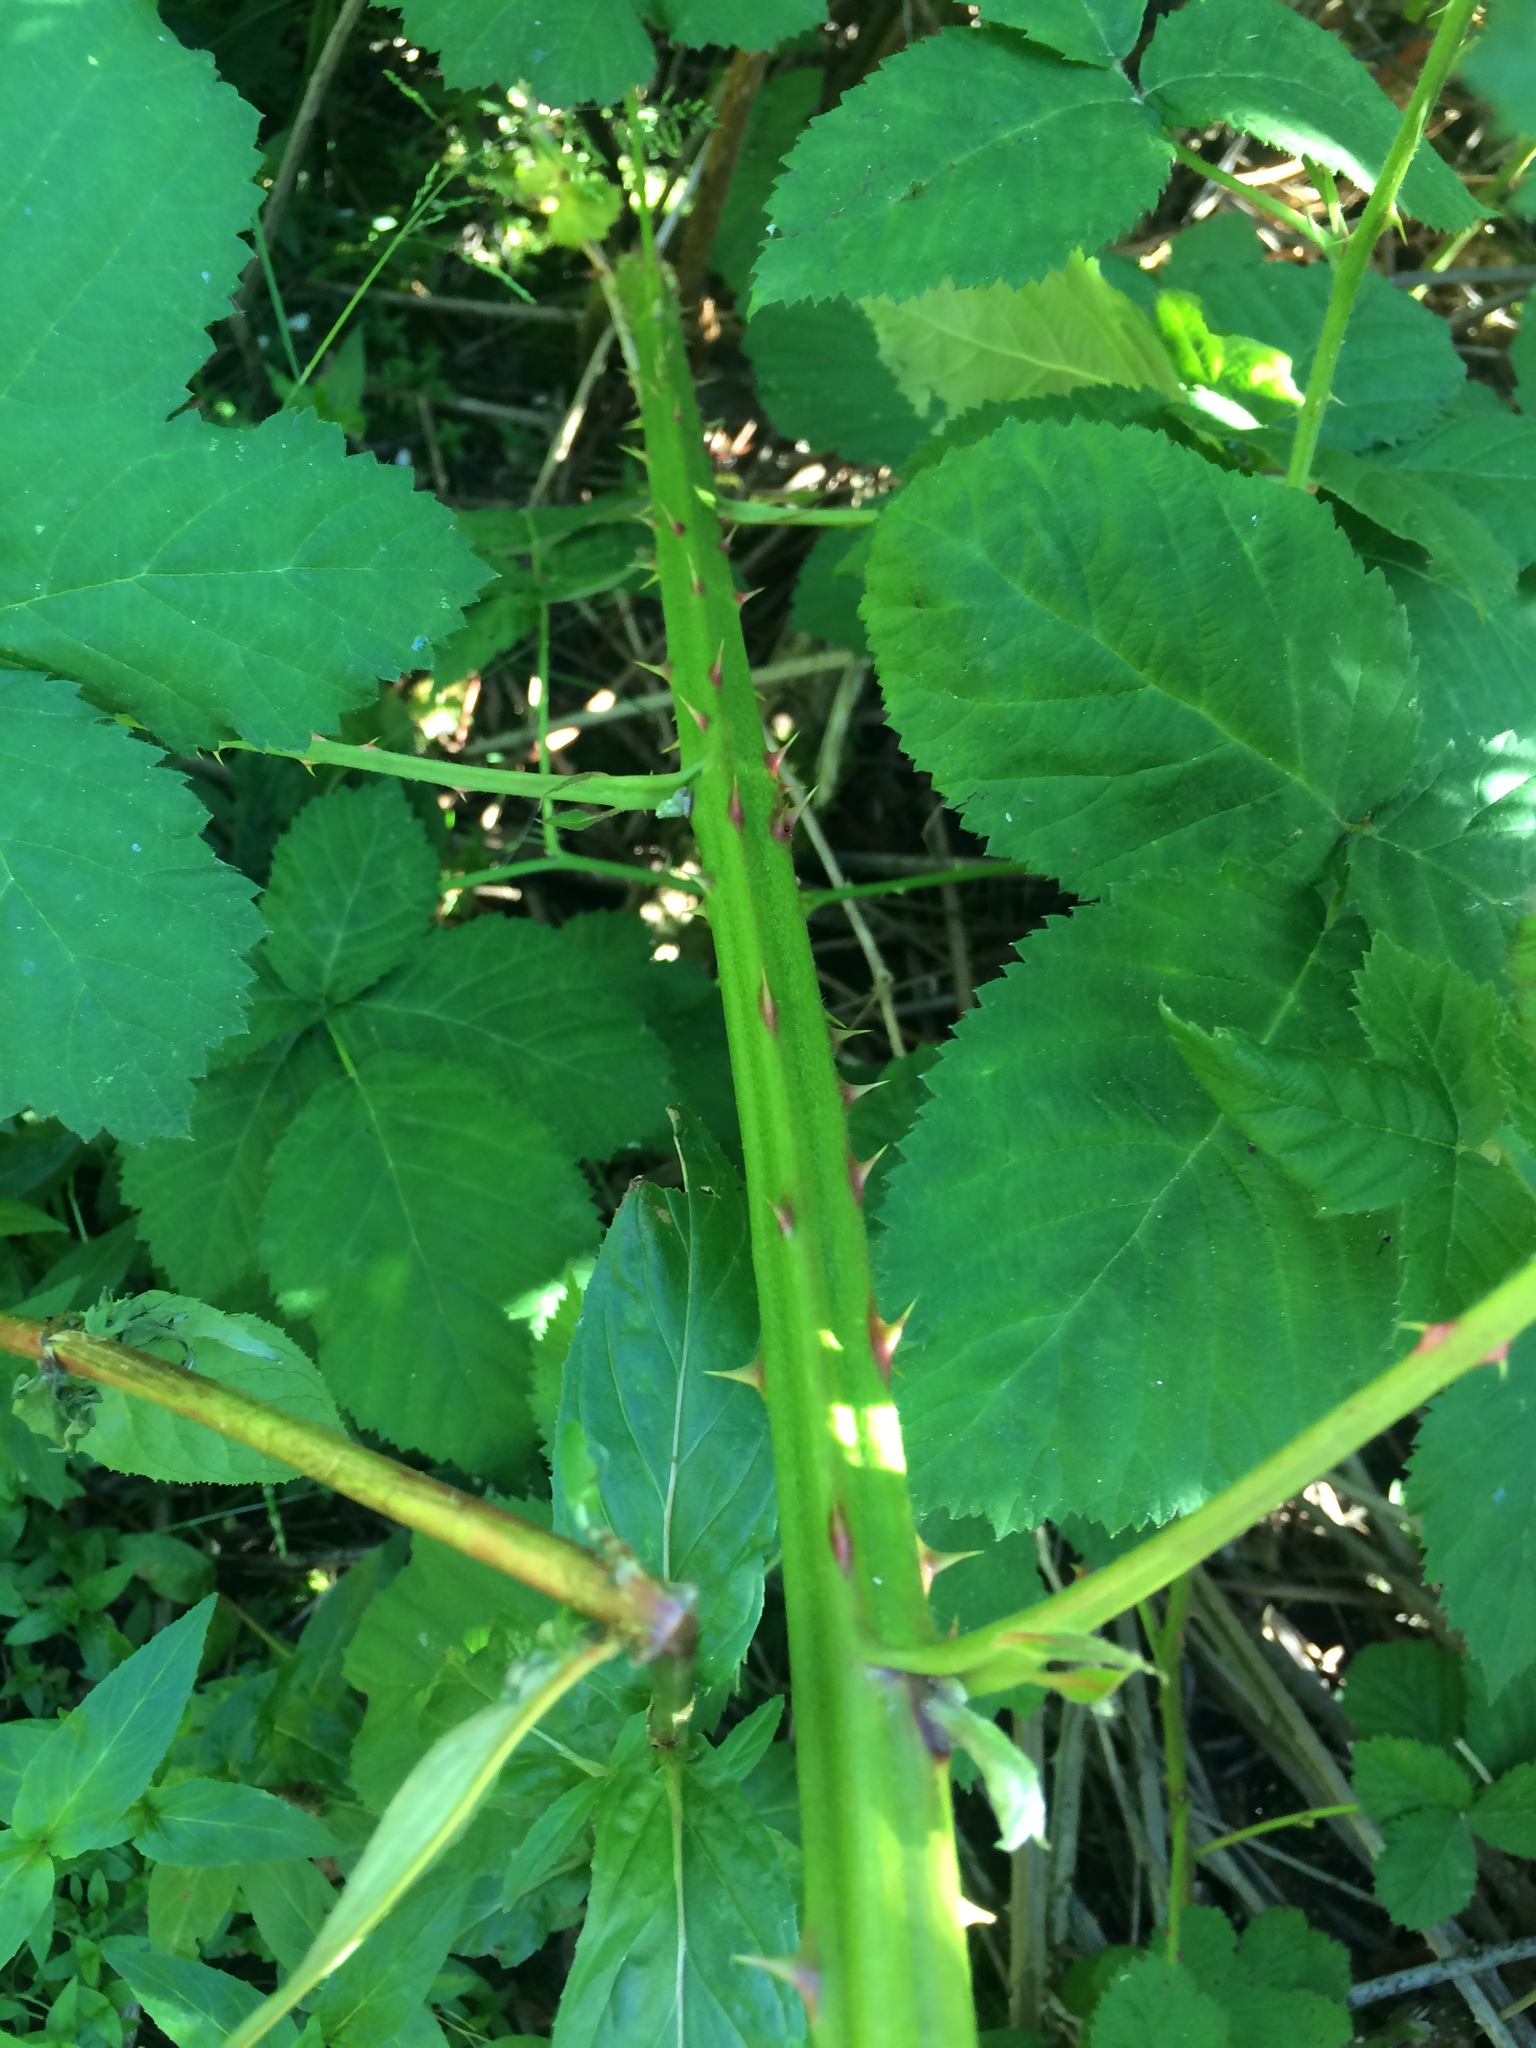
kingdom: Plantae
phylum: Tracheophyta
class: Magnoliopsida
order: Rosales
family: Rosaceae
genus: Rubus
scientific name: Rubus armeniacus
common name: Himalayan blackberry
